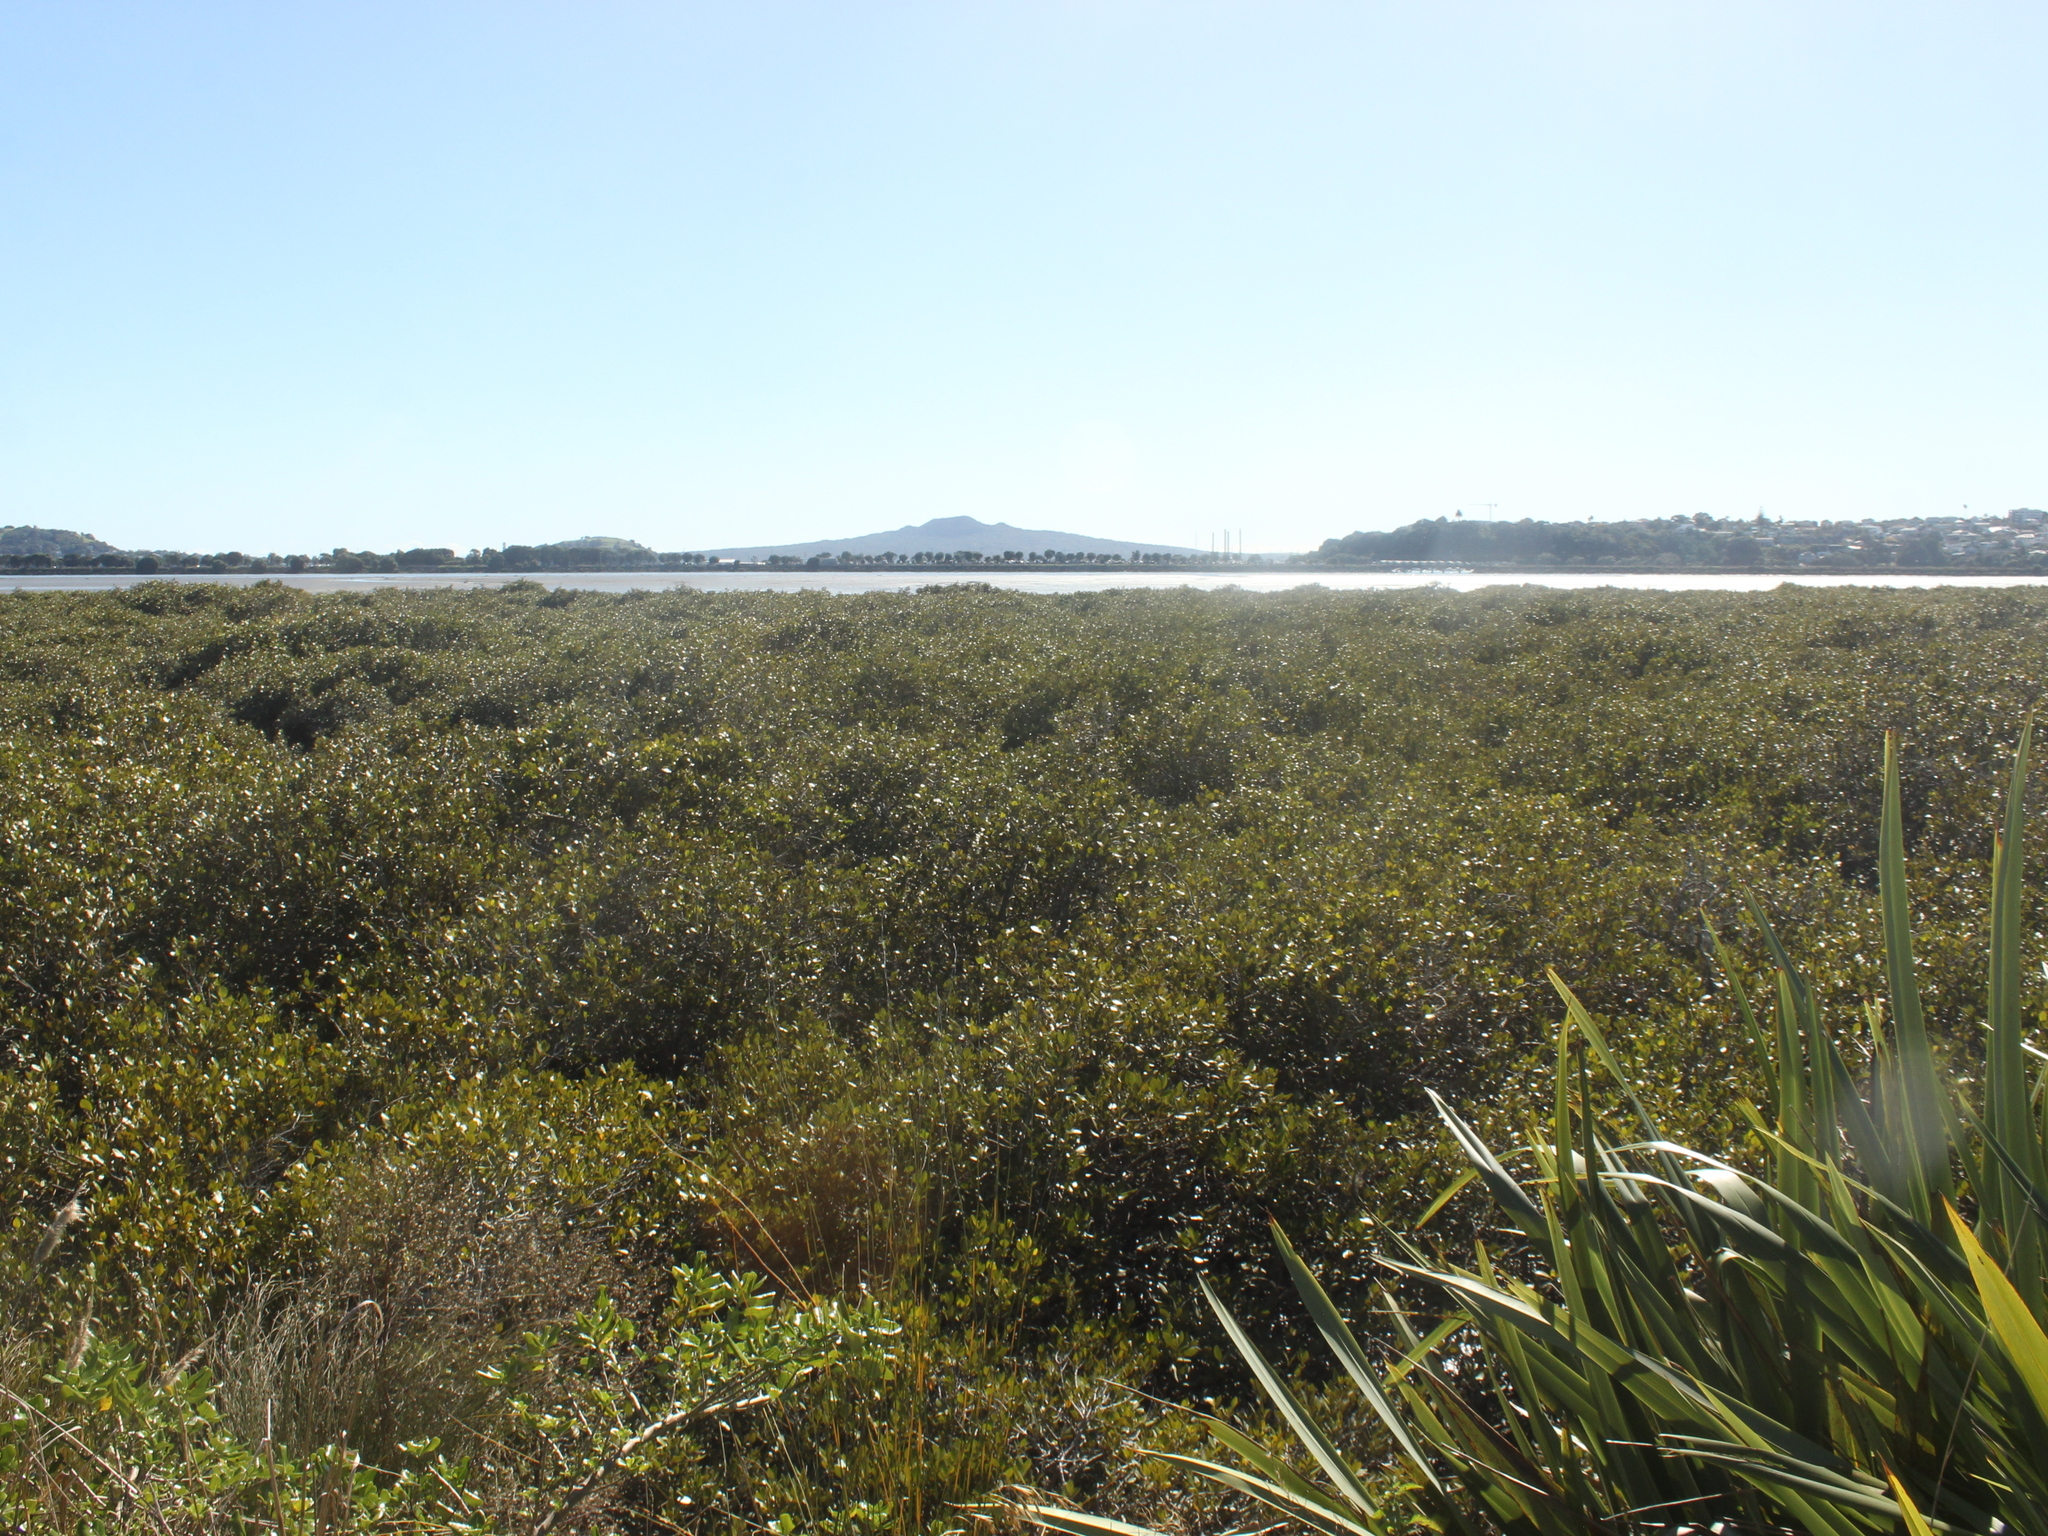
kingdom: Plantae
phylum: Tracheophyta
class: Magnoliopsida
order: Lamiales
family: Acanthaceae
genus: Avicennia
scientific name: Avicennia marina
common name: Gray mangrove
